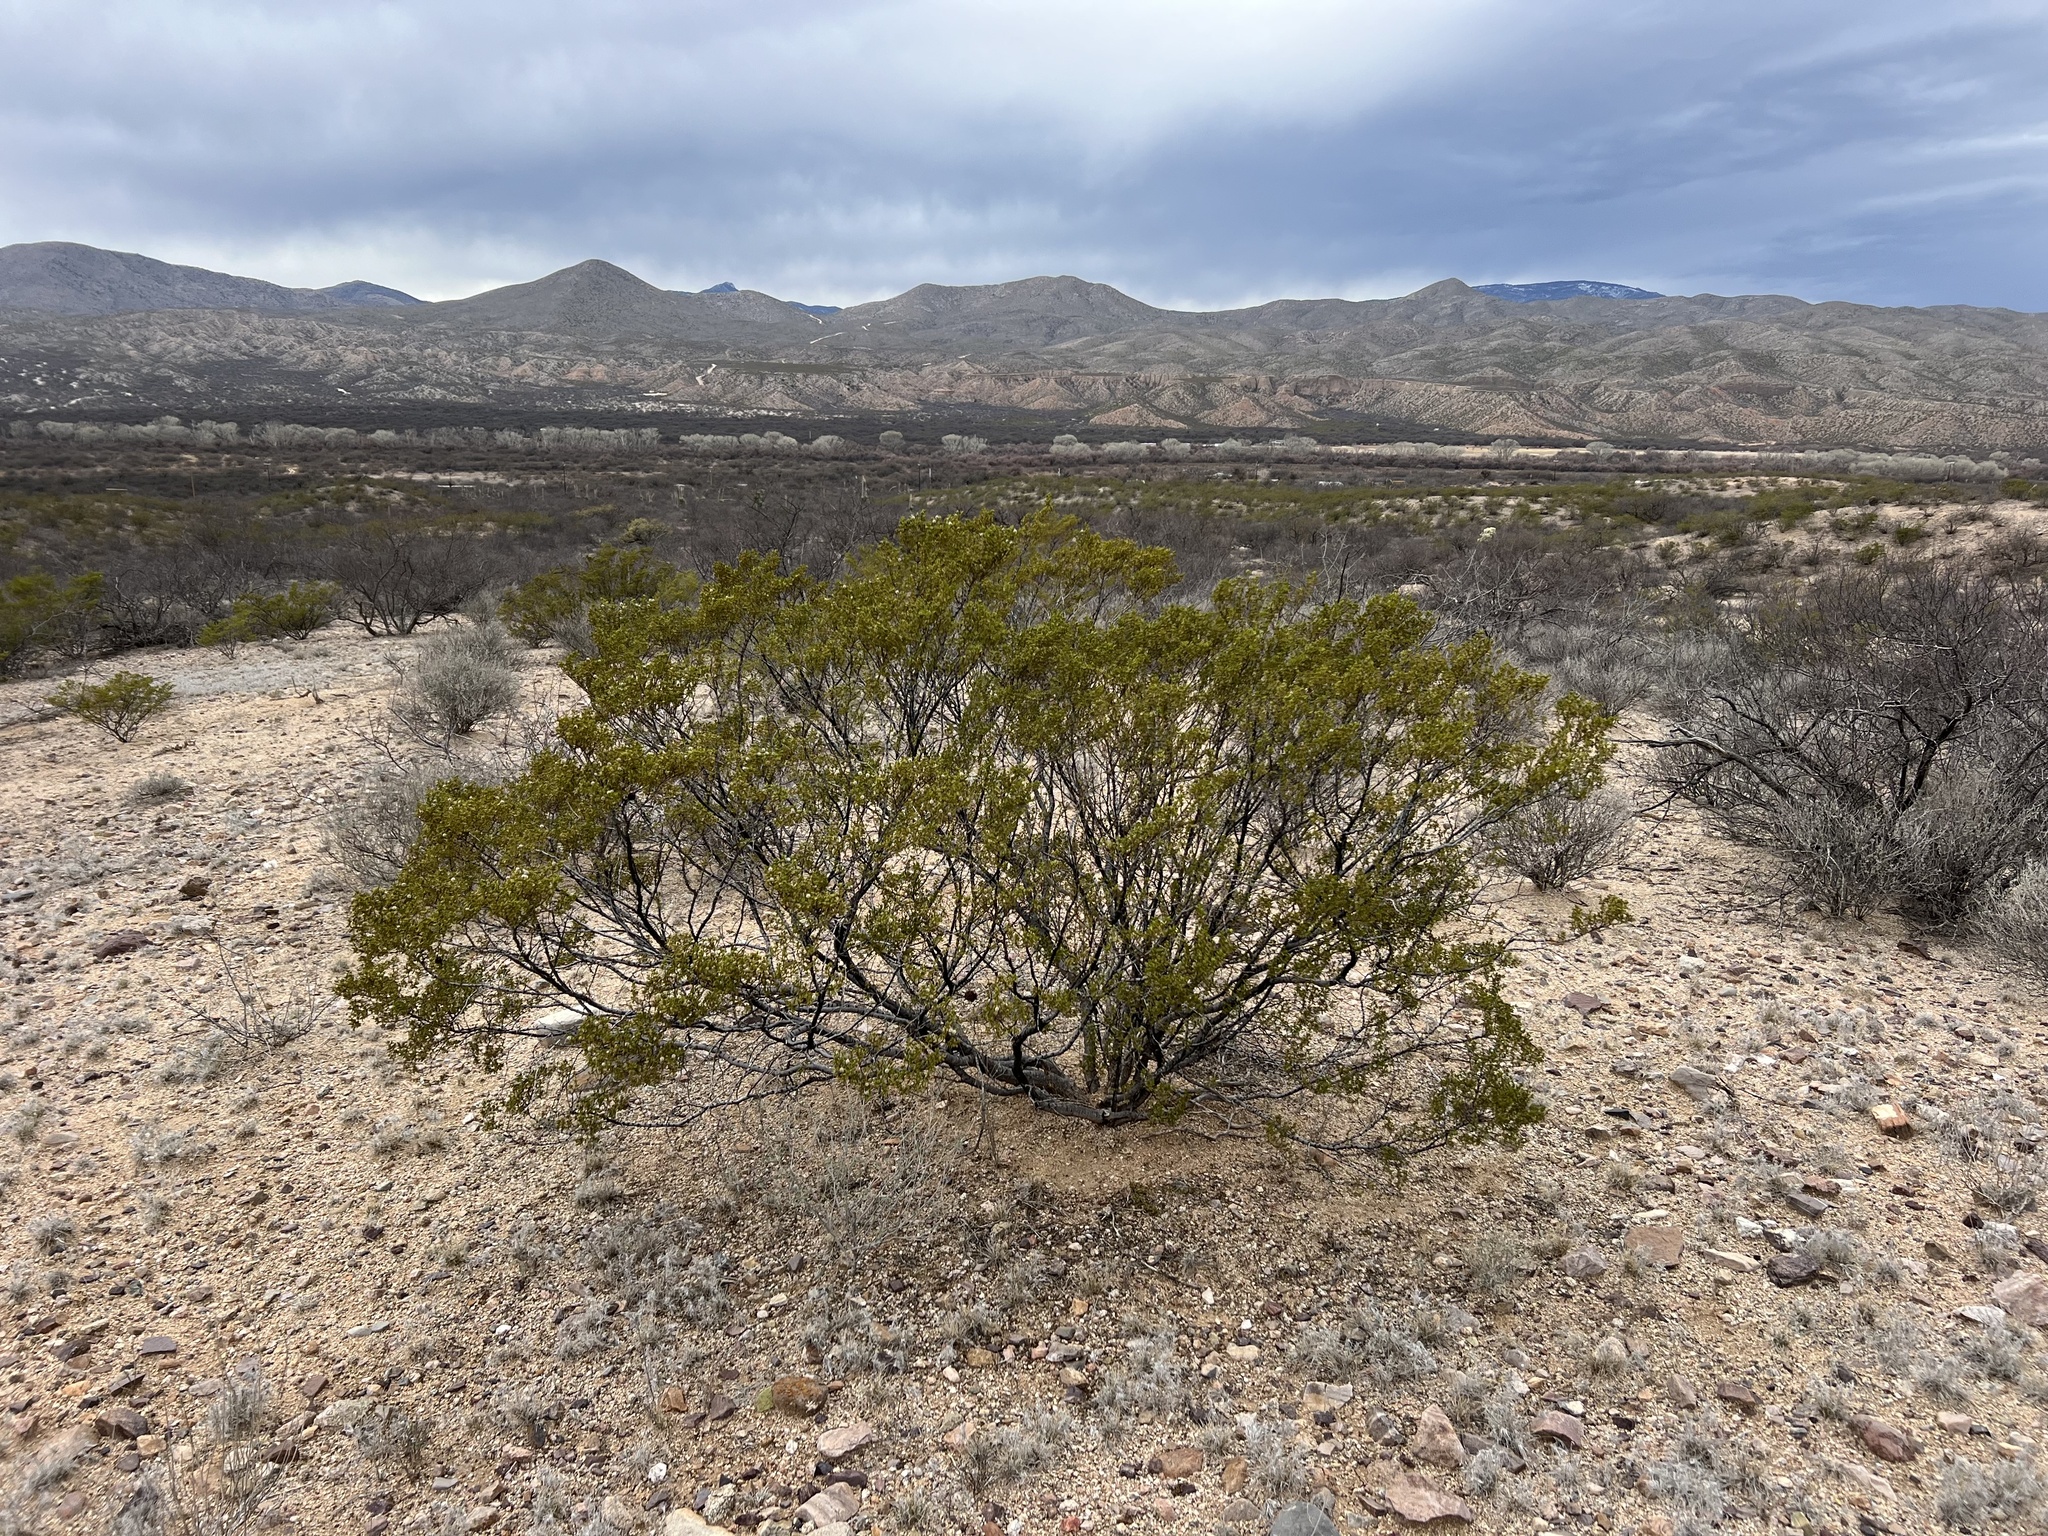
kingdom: Plantae
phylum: Tracheophyta
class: Magnoliopsida
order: Zygophyllales
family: Zygophyllaceae
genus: Larrea
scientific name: Larrea tridentata
